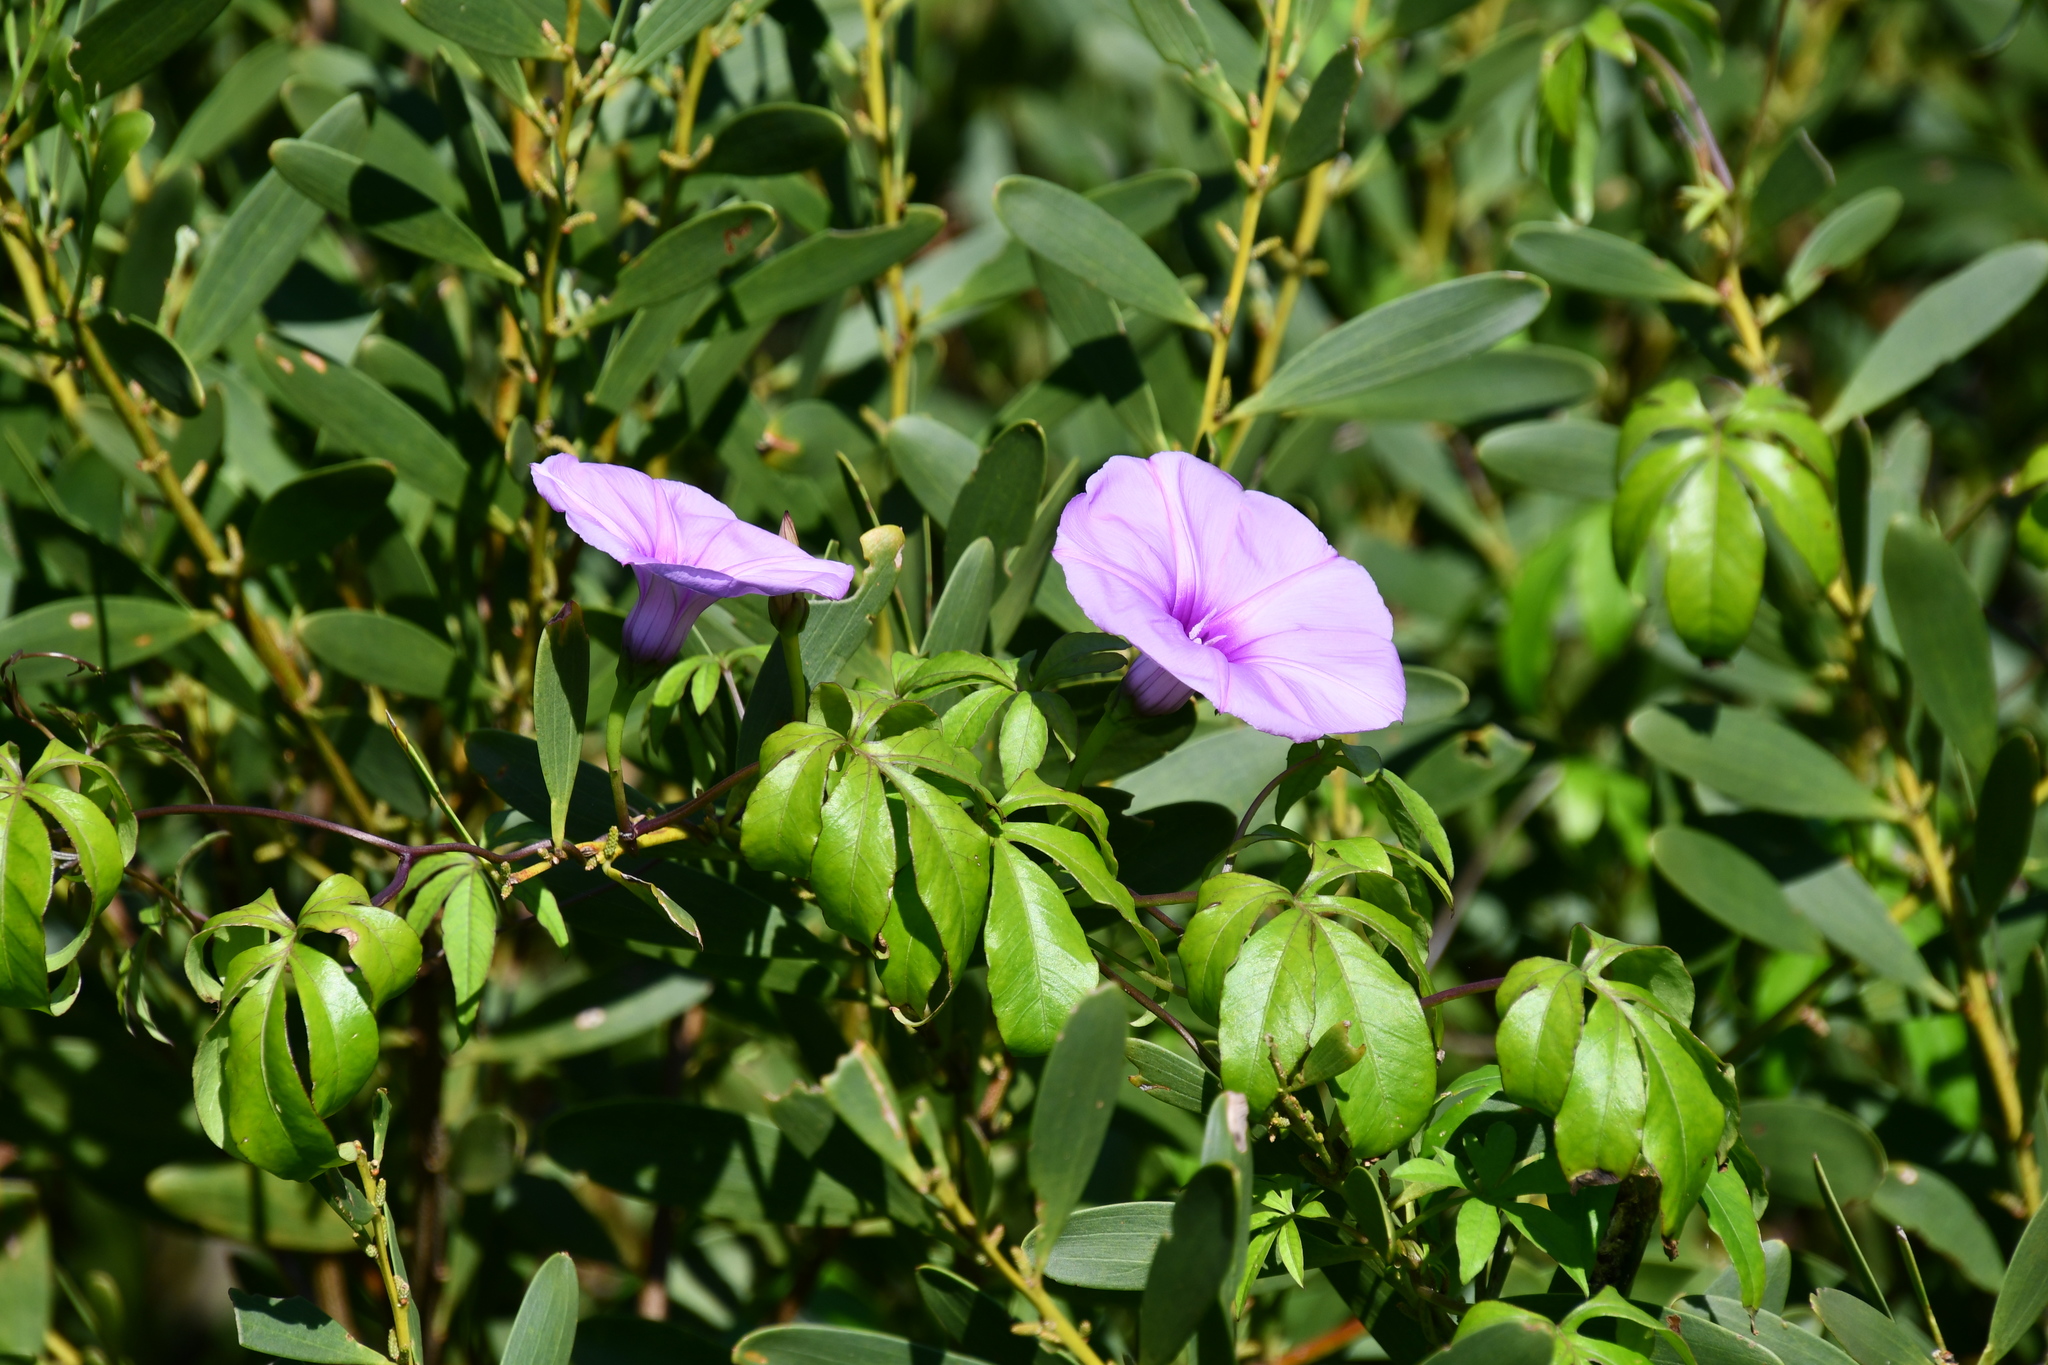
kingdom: Plantae
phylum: Tracheophyta
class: Magnoliopsida
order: Solanales
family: Convolvulaceae
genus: Ipomoea
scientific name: Ipomoea cairica
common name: Mile a minute vine
